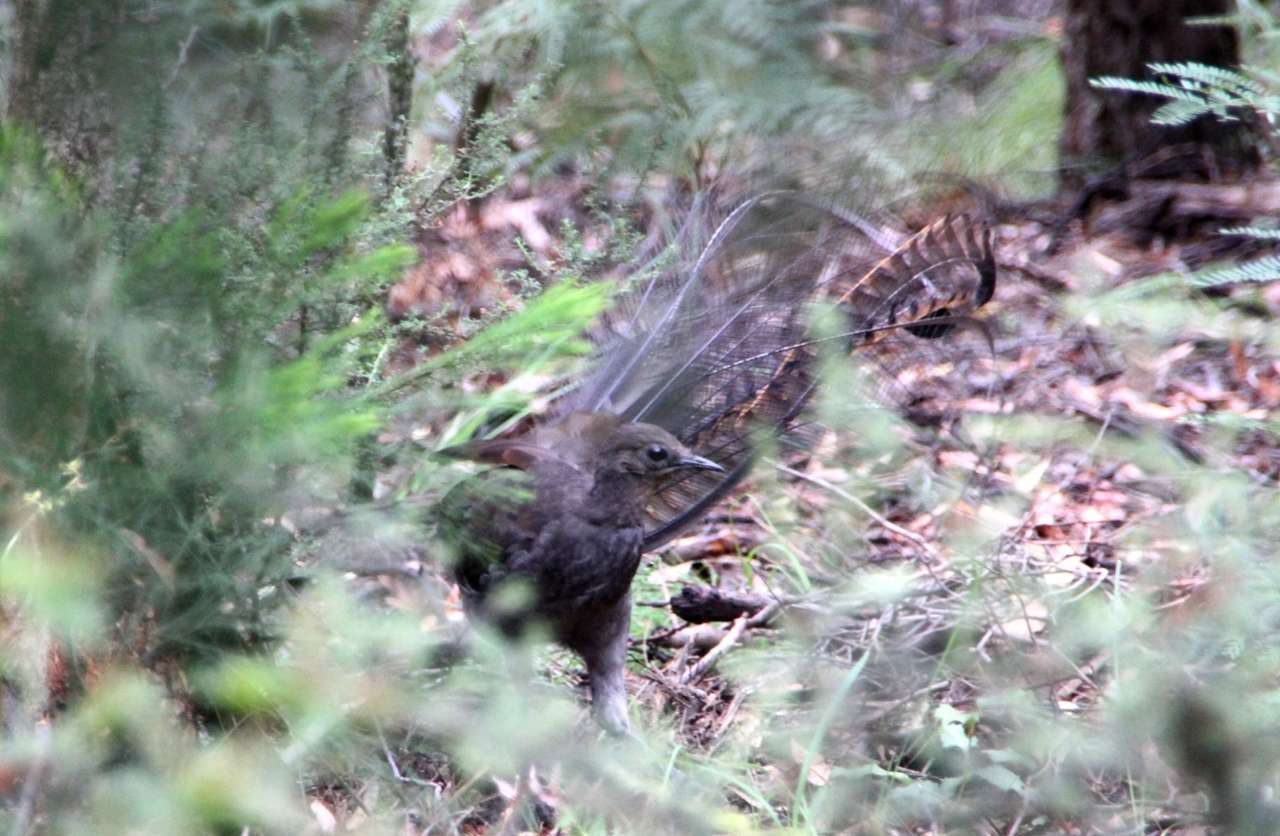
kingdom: Animalia
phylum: Chordata
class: Aves
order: Passeriformes
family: Menuridae
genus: Menura
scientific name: Menura novaehollandiae
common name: Superb lyrebird
